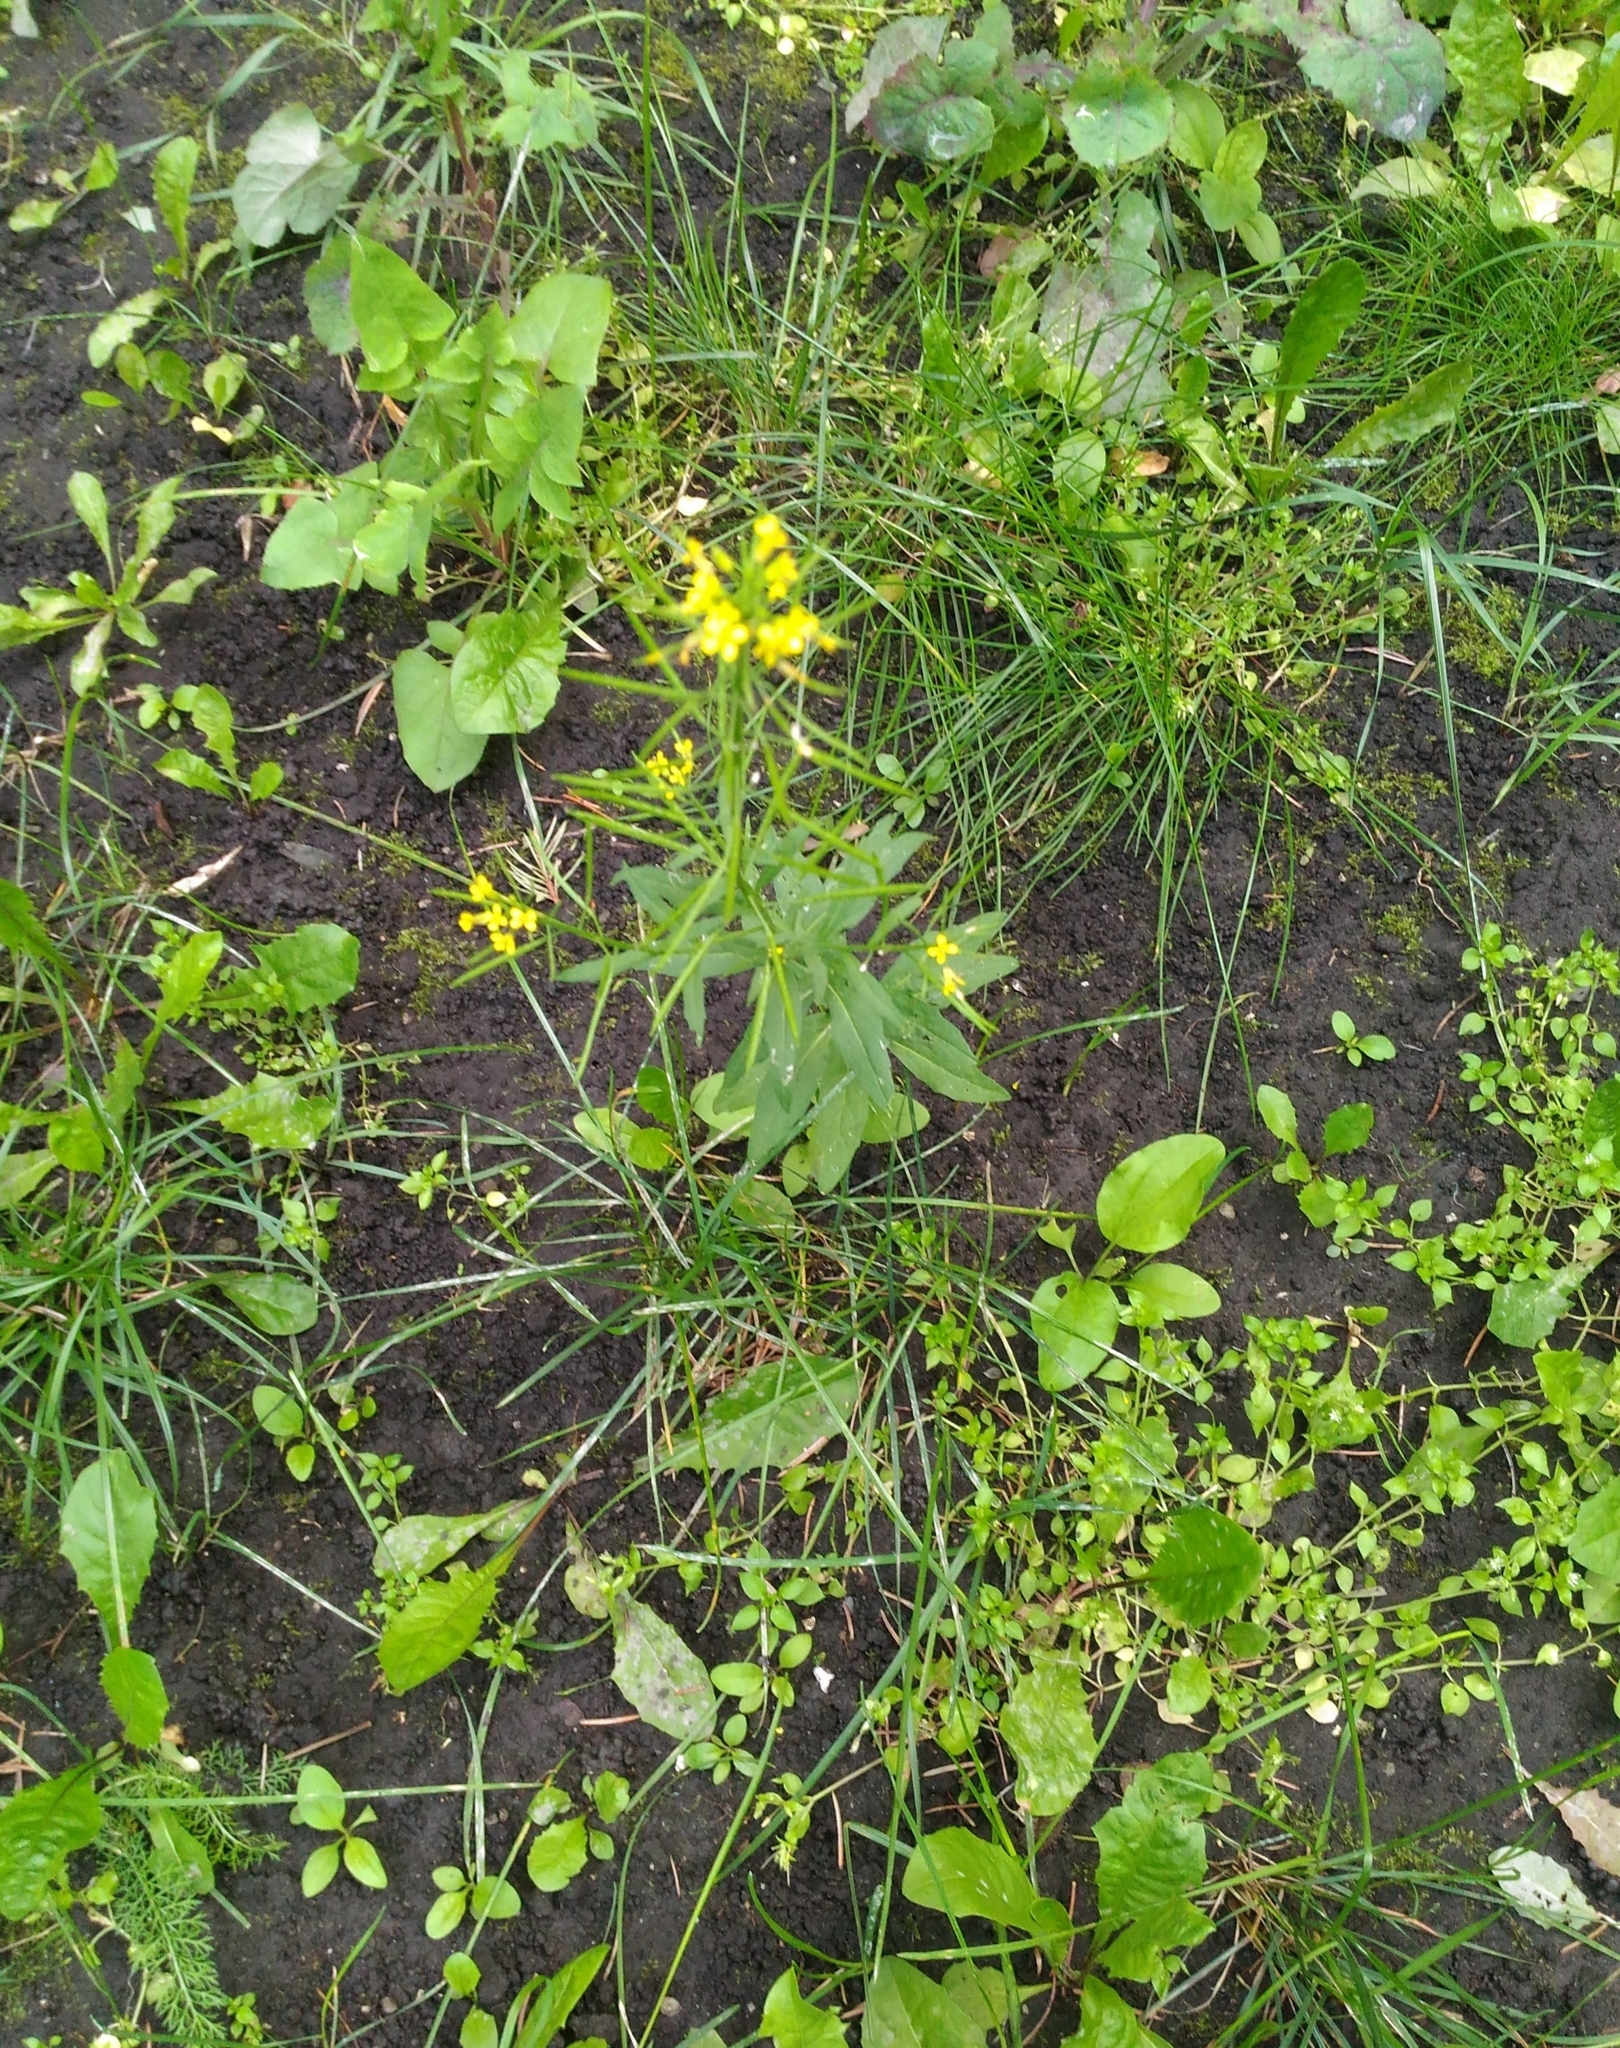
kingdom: Plantae
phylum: Tracheophyta
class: Magnoliopsida
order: Brassicales
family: Brassicaceae
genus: Erysimum
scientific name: Erysimum cheiranthoides
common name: Treacle mustard
